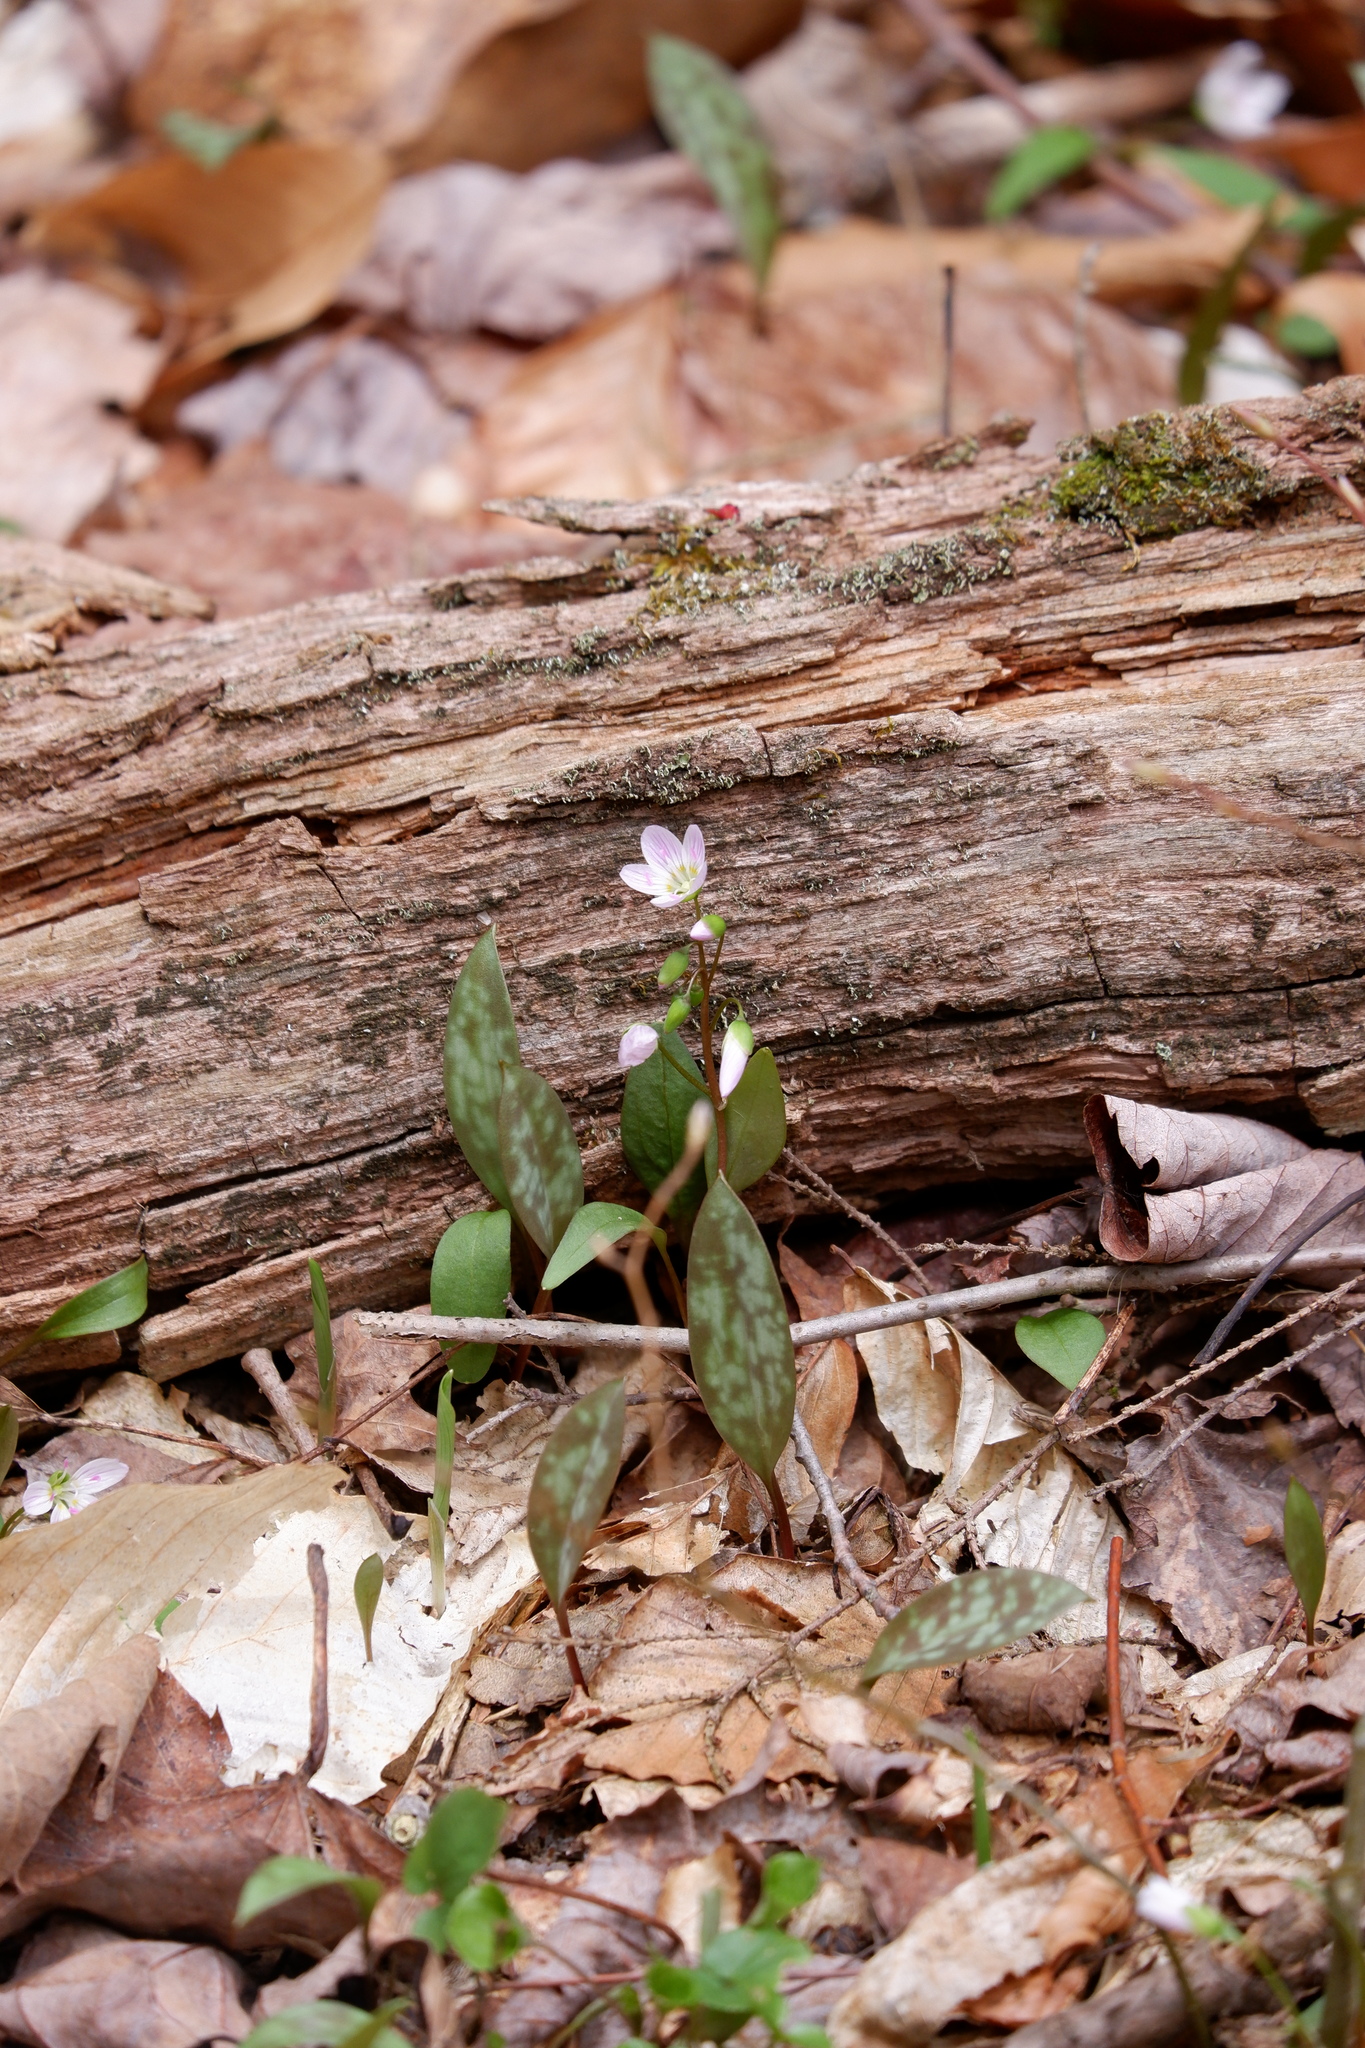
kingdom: Plantae
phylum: Tracheophyta
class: Magnoliopsida
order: Caryophyllales
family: Montiaceae
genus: Claytonia
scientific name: Claytonia caroliniana
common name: Carolina spring beauty
